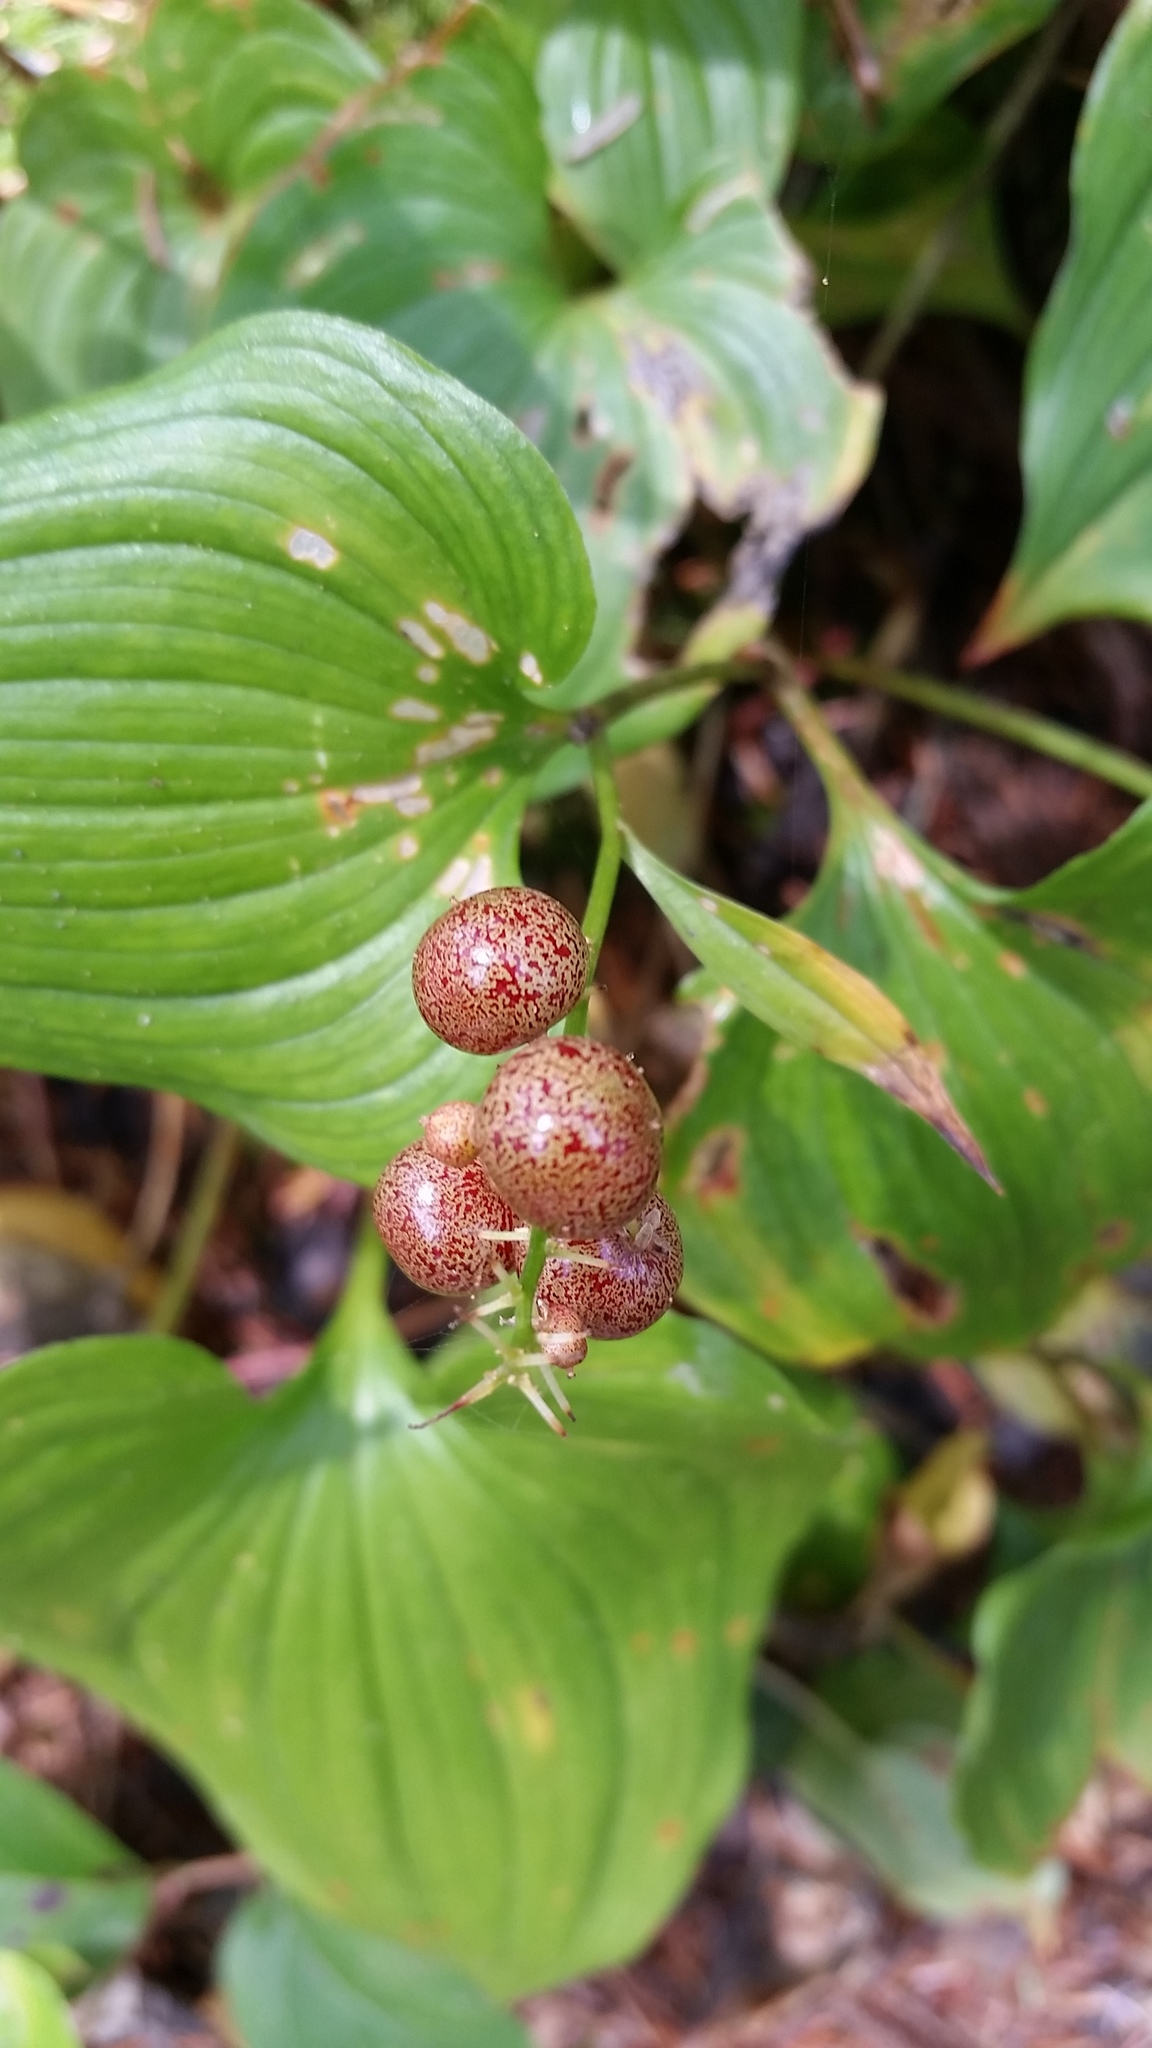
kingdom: Plantae
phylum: Tracheophyta
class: Liliopsida
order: Asparagales
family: Asparagaceae
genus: Maianthemum
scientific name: Maianthemum dilatatum
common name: False lily-of-the-valley
